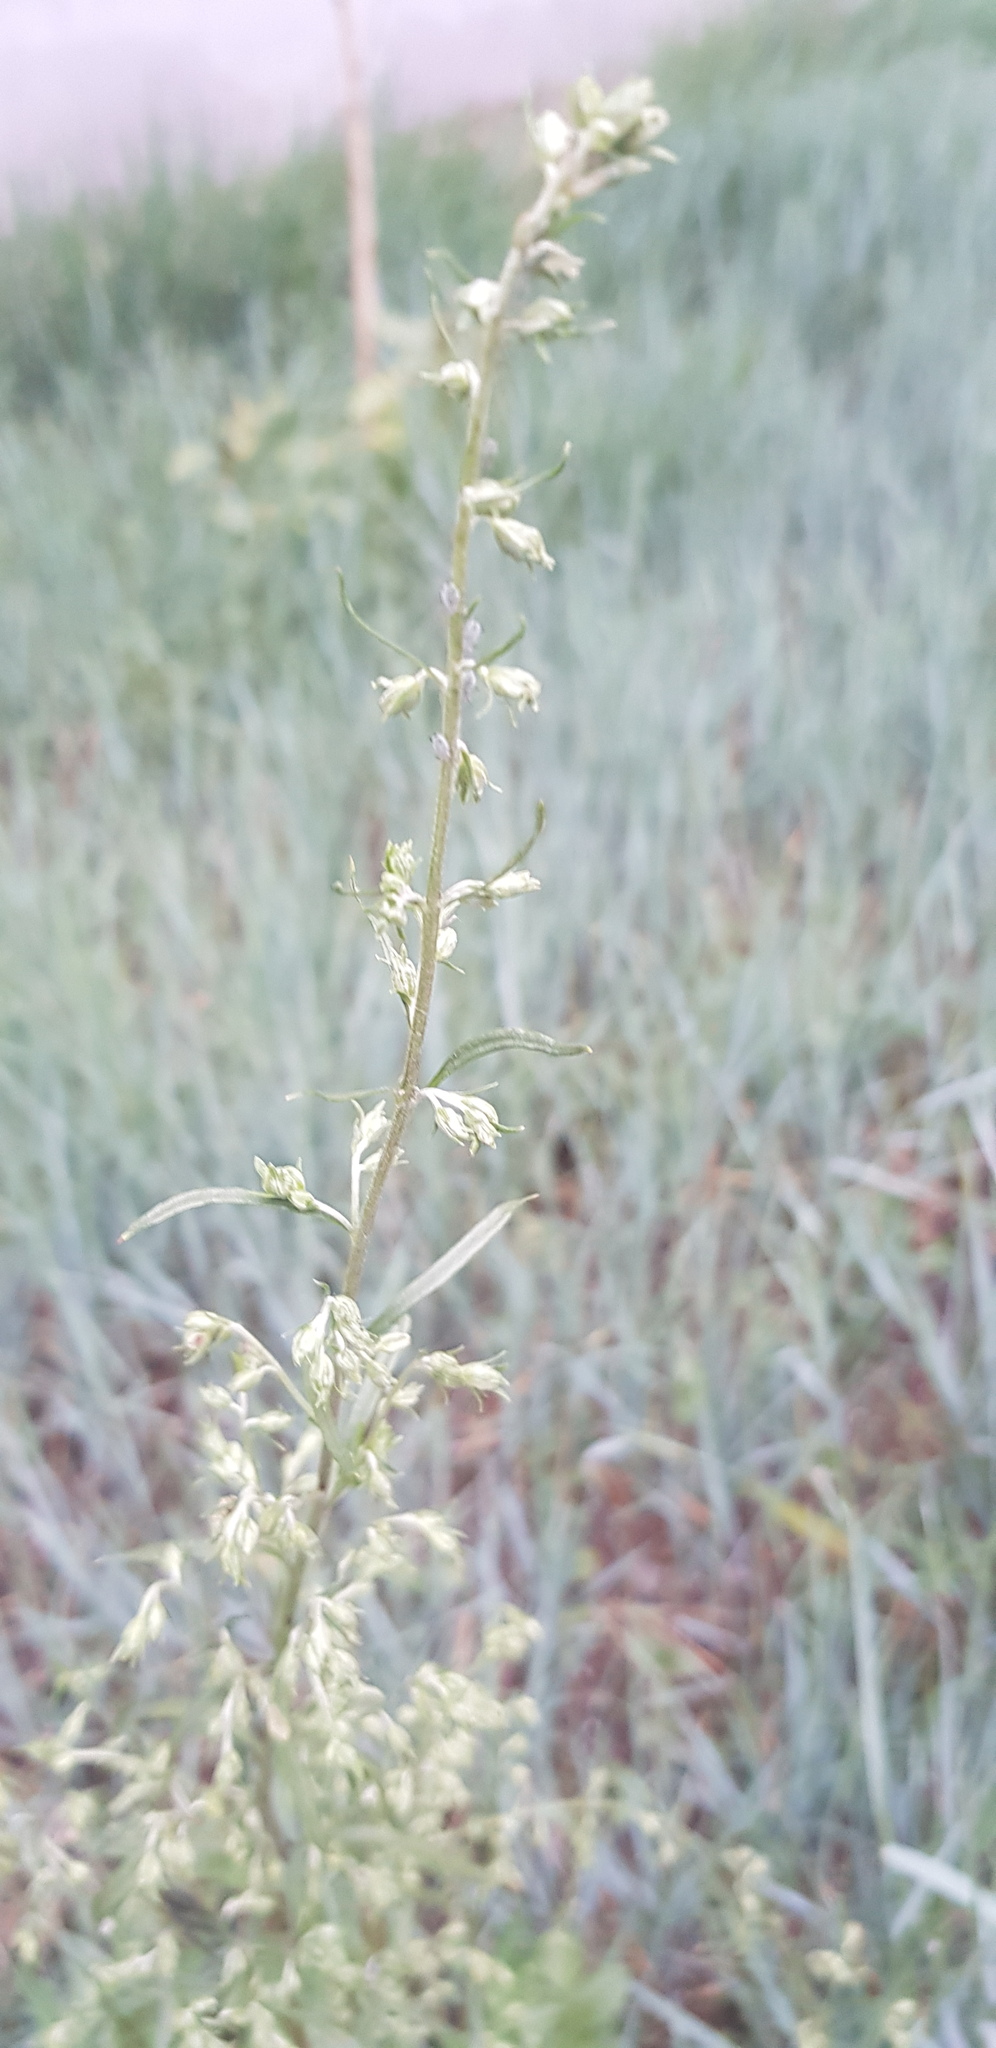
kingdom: Plantae
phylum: Tracheophyta
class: Magnoliopsida
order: Asterales
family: Asteraceae
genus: Artemisia
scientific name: Artemisia sieversiana
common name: Sieversian wormwood
